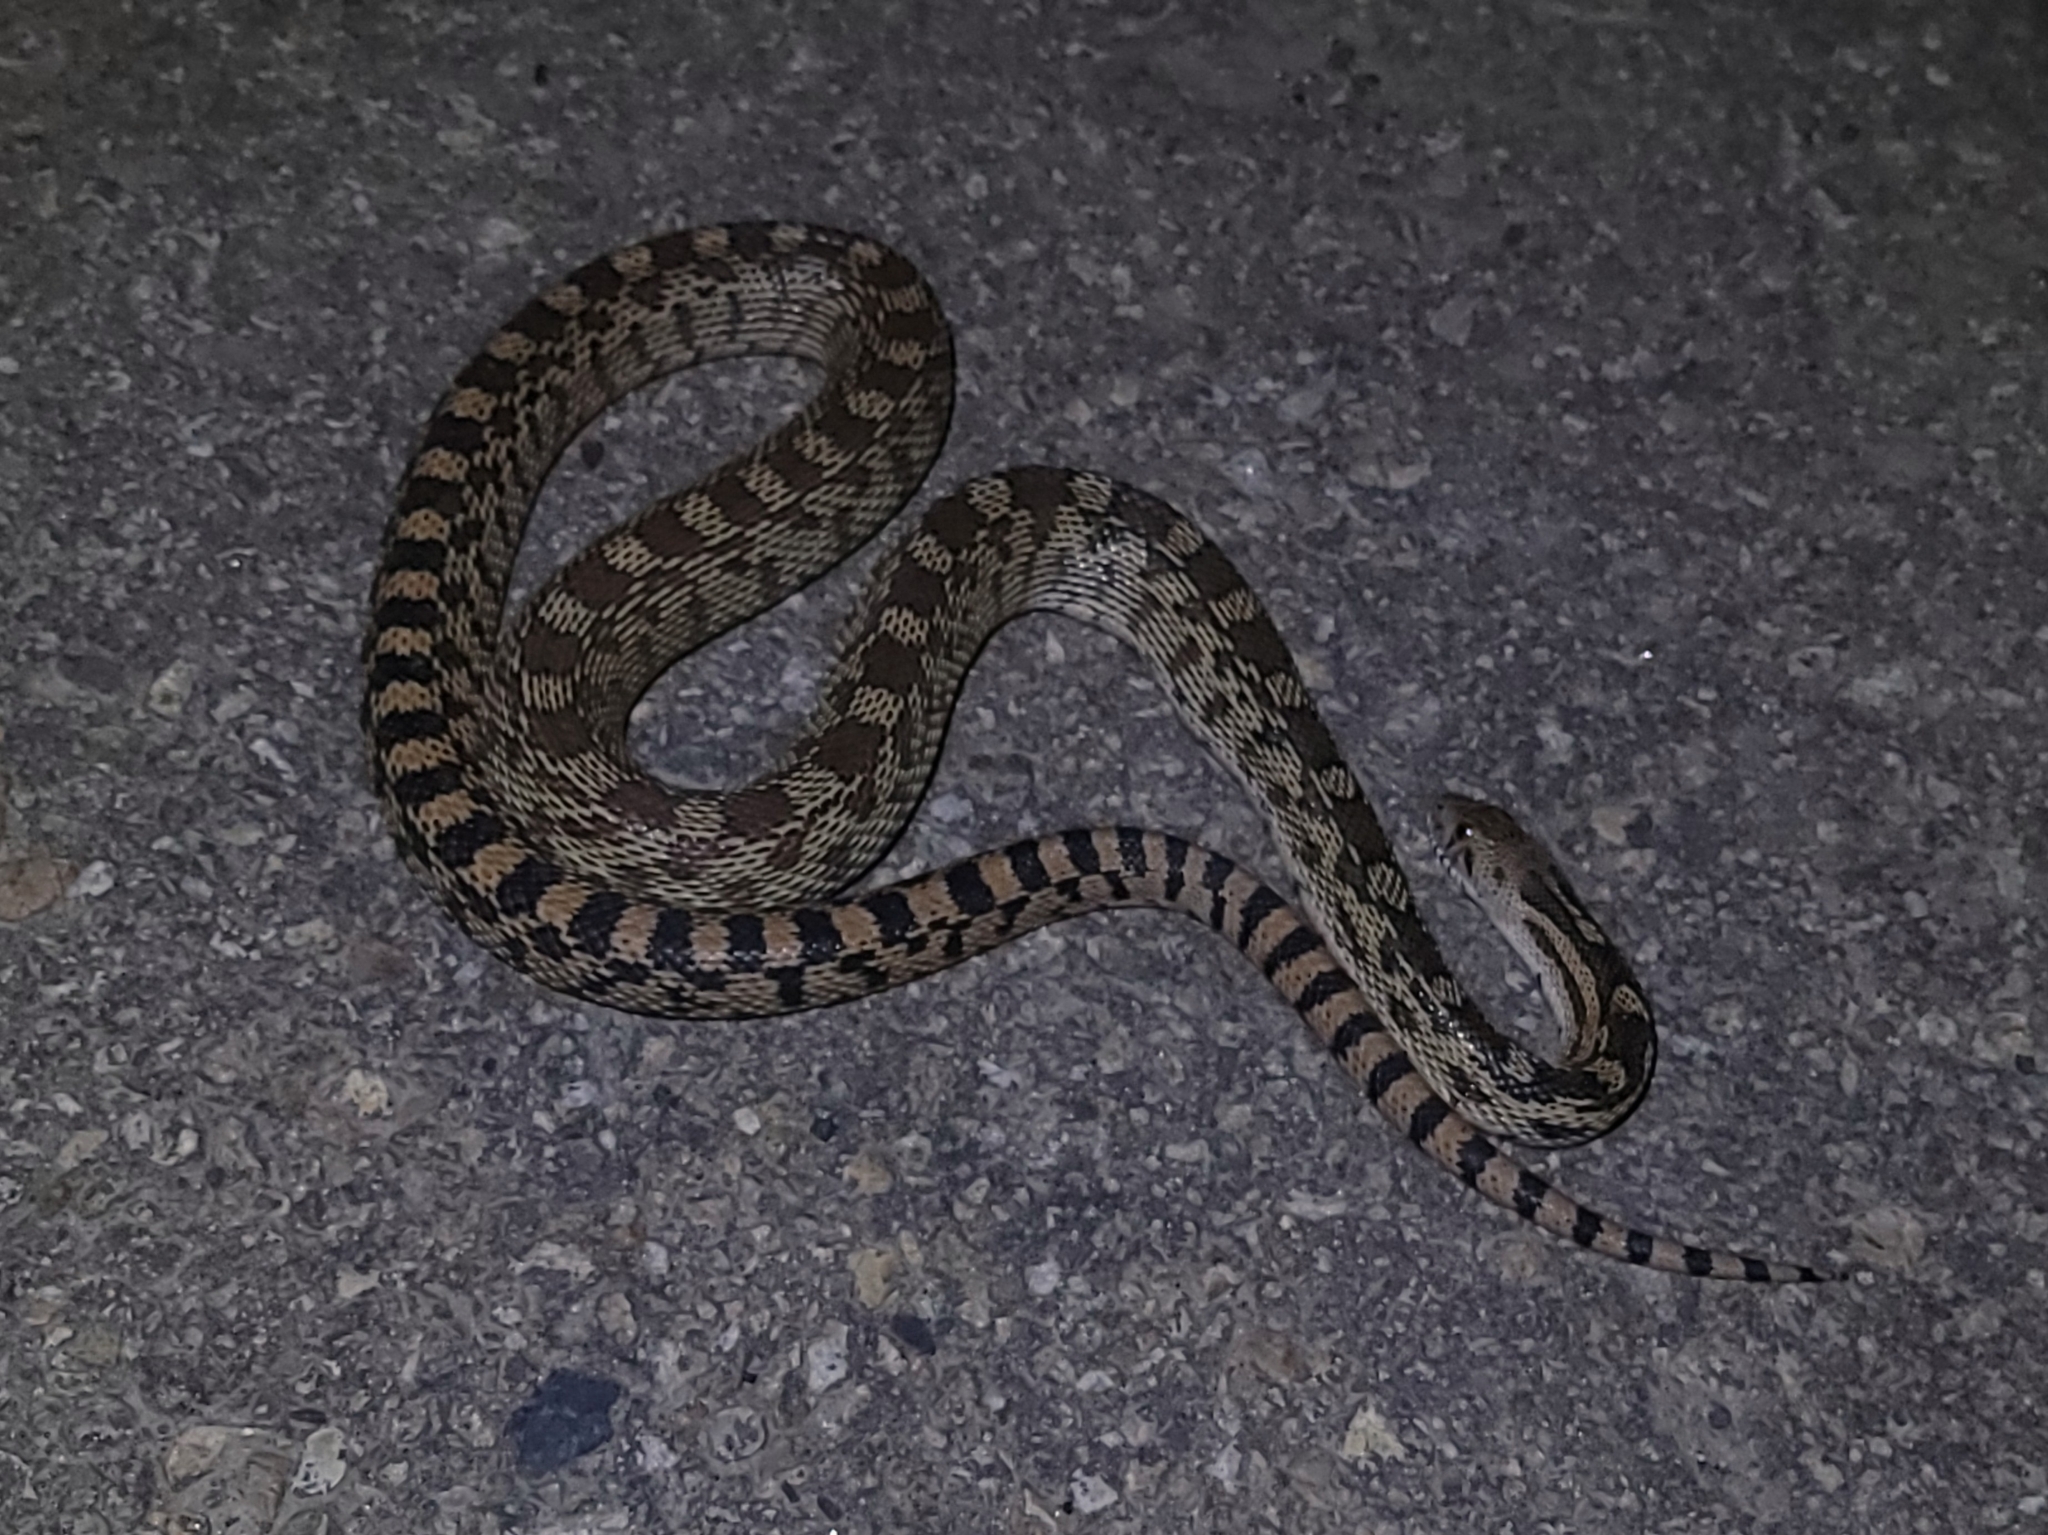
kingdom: Animalia
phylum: Chordata
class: Squamata
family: Colubridae
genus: Pituophis
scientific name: Pituophis catenifer
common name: Gopher snake
